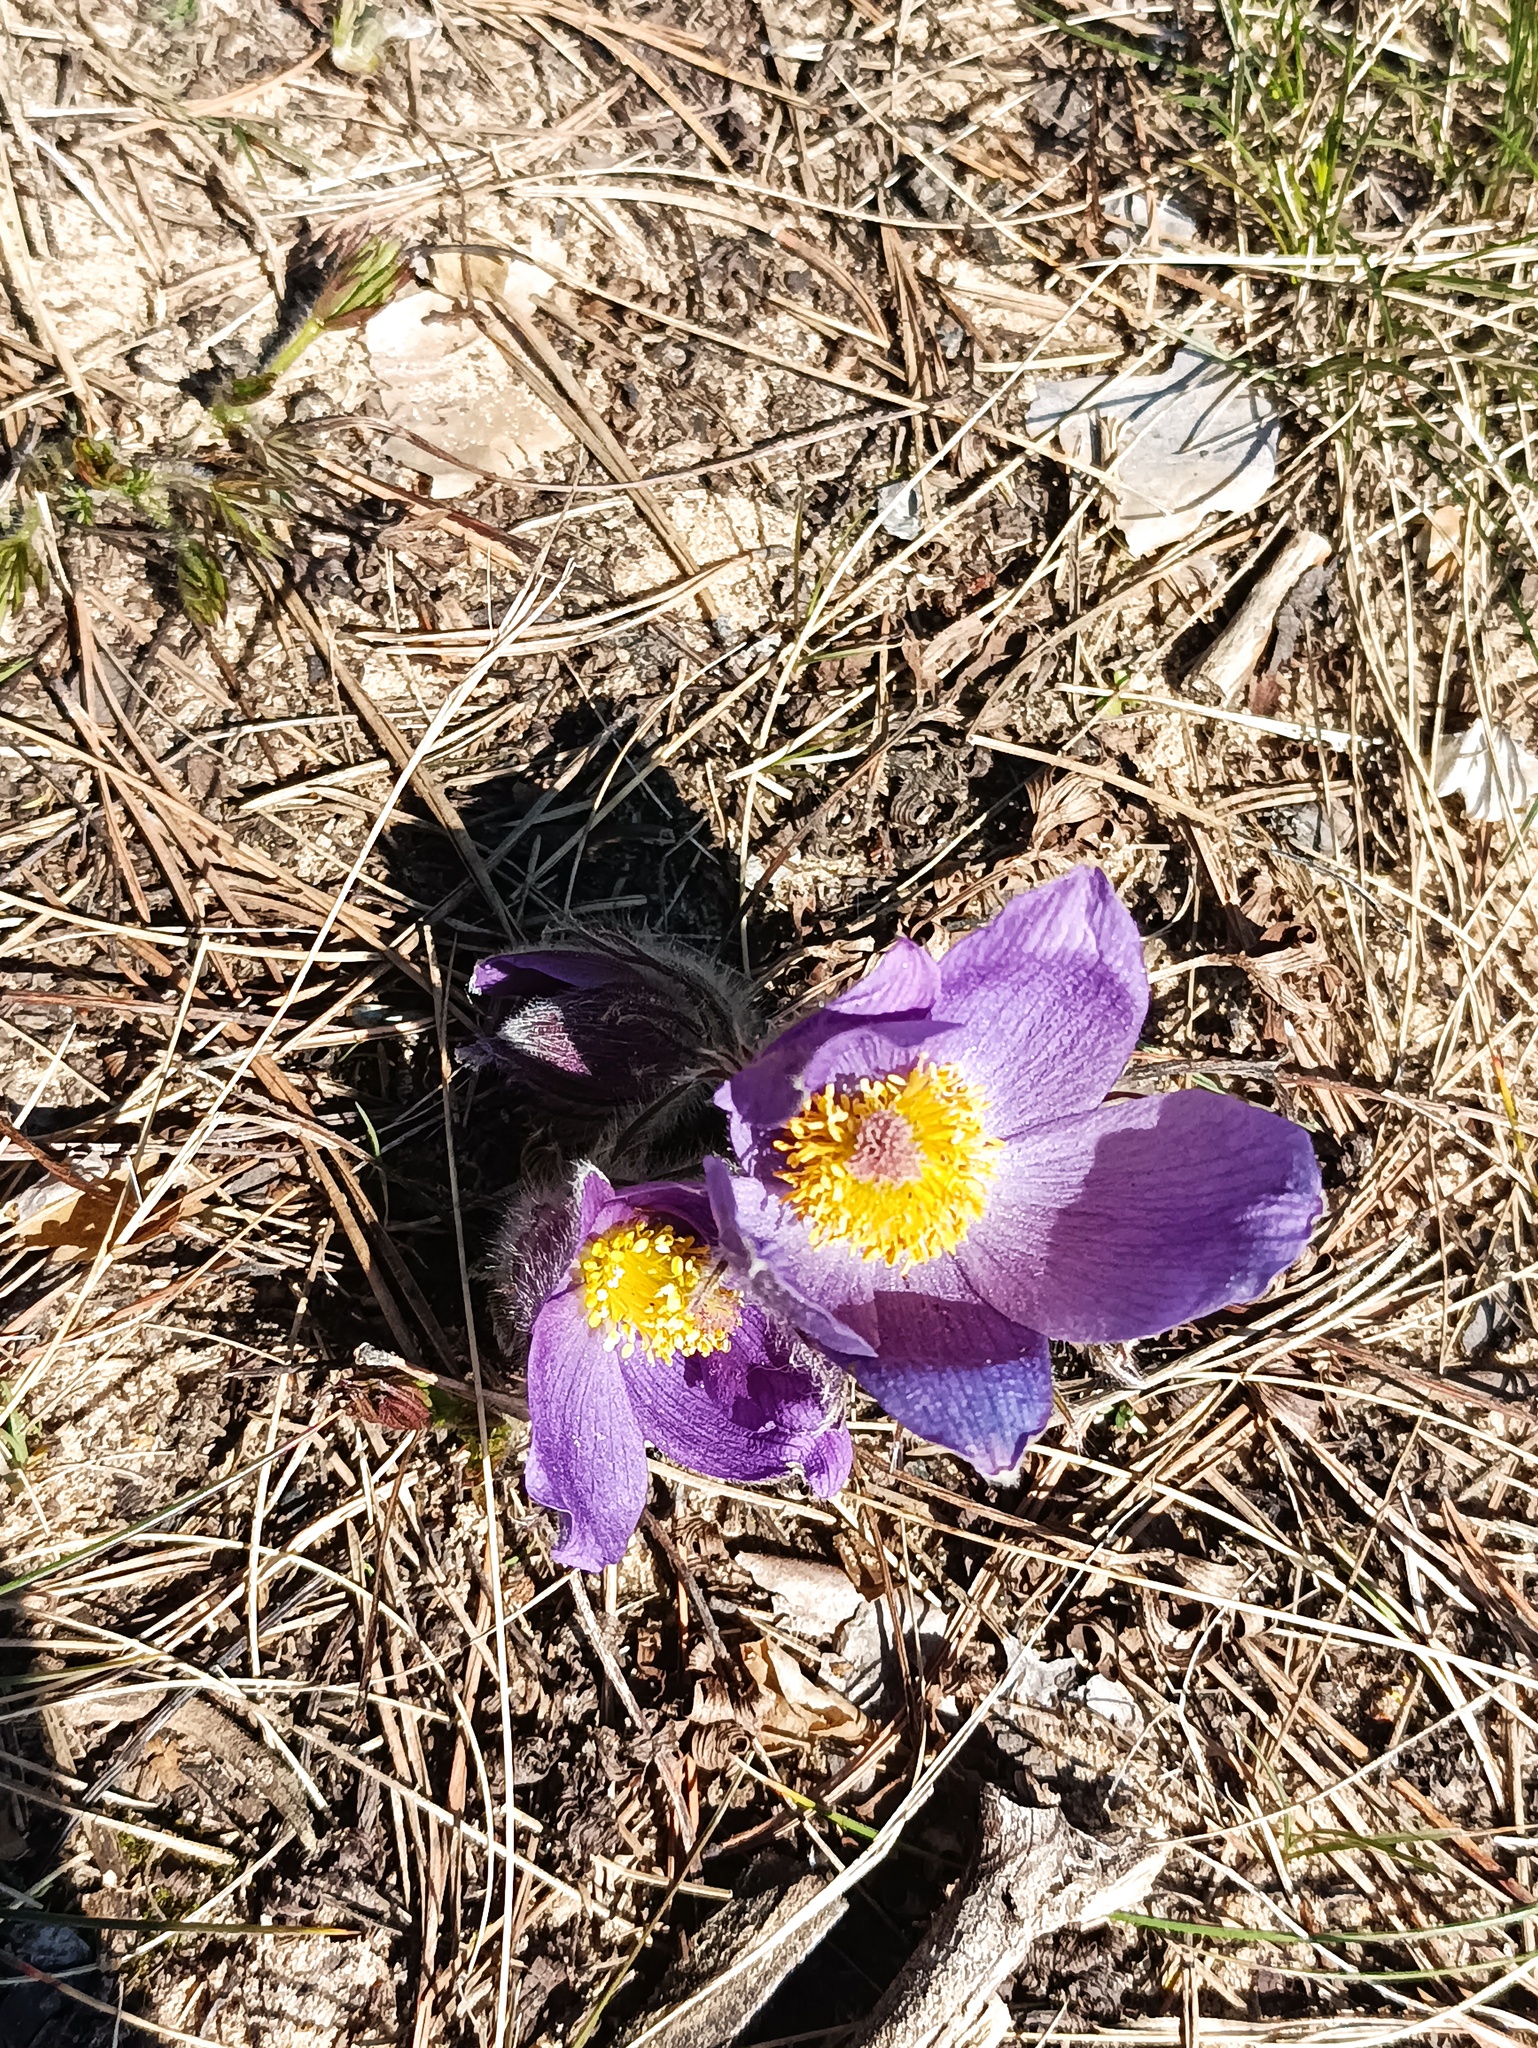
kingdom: Plantae
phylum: Tracheophyta
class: Magnoliopsida
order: Ranunculales
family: Ranunculaceae
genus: Pulsatilla
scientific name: Pulsatilla patens
